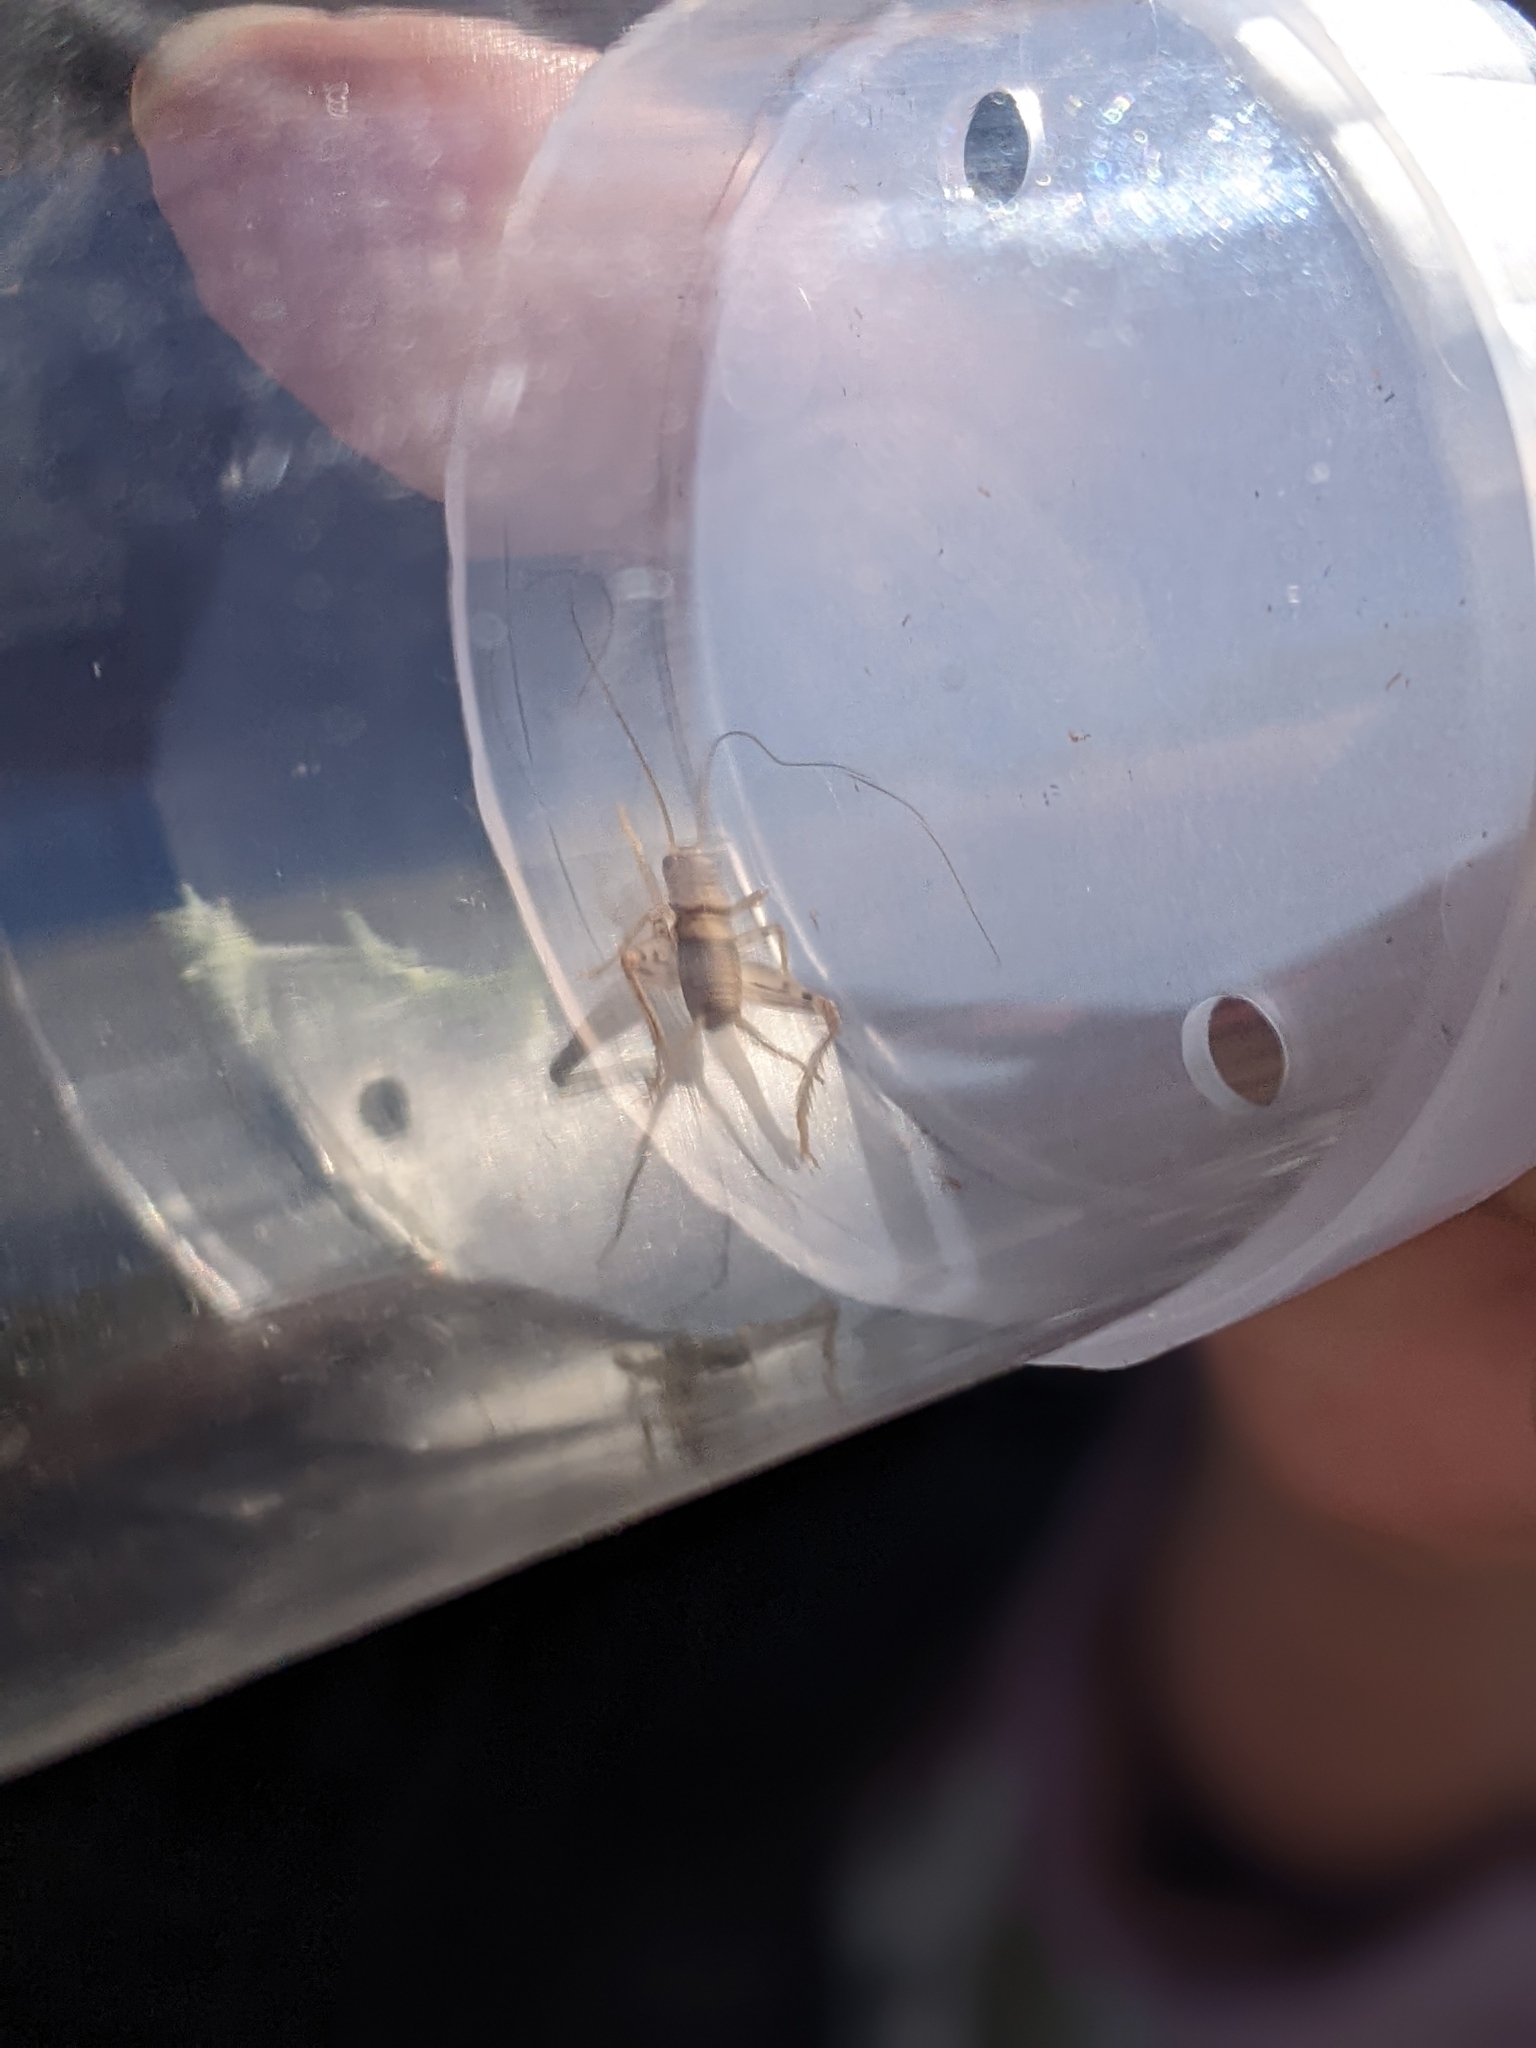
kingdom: Animalia
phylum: Arthropoda
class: Insecta
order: Orthoptera
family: Gryllidae
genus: Gryllodes
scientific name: Gryllodes sigillatus
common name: Tropical house cricket
